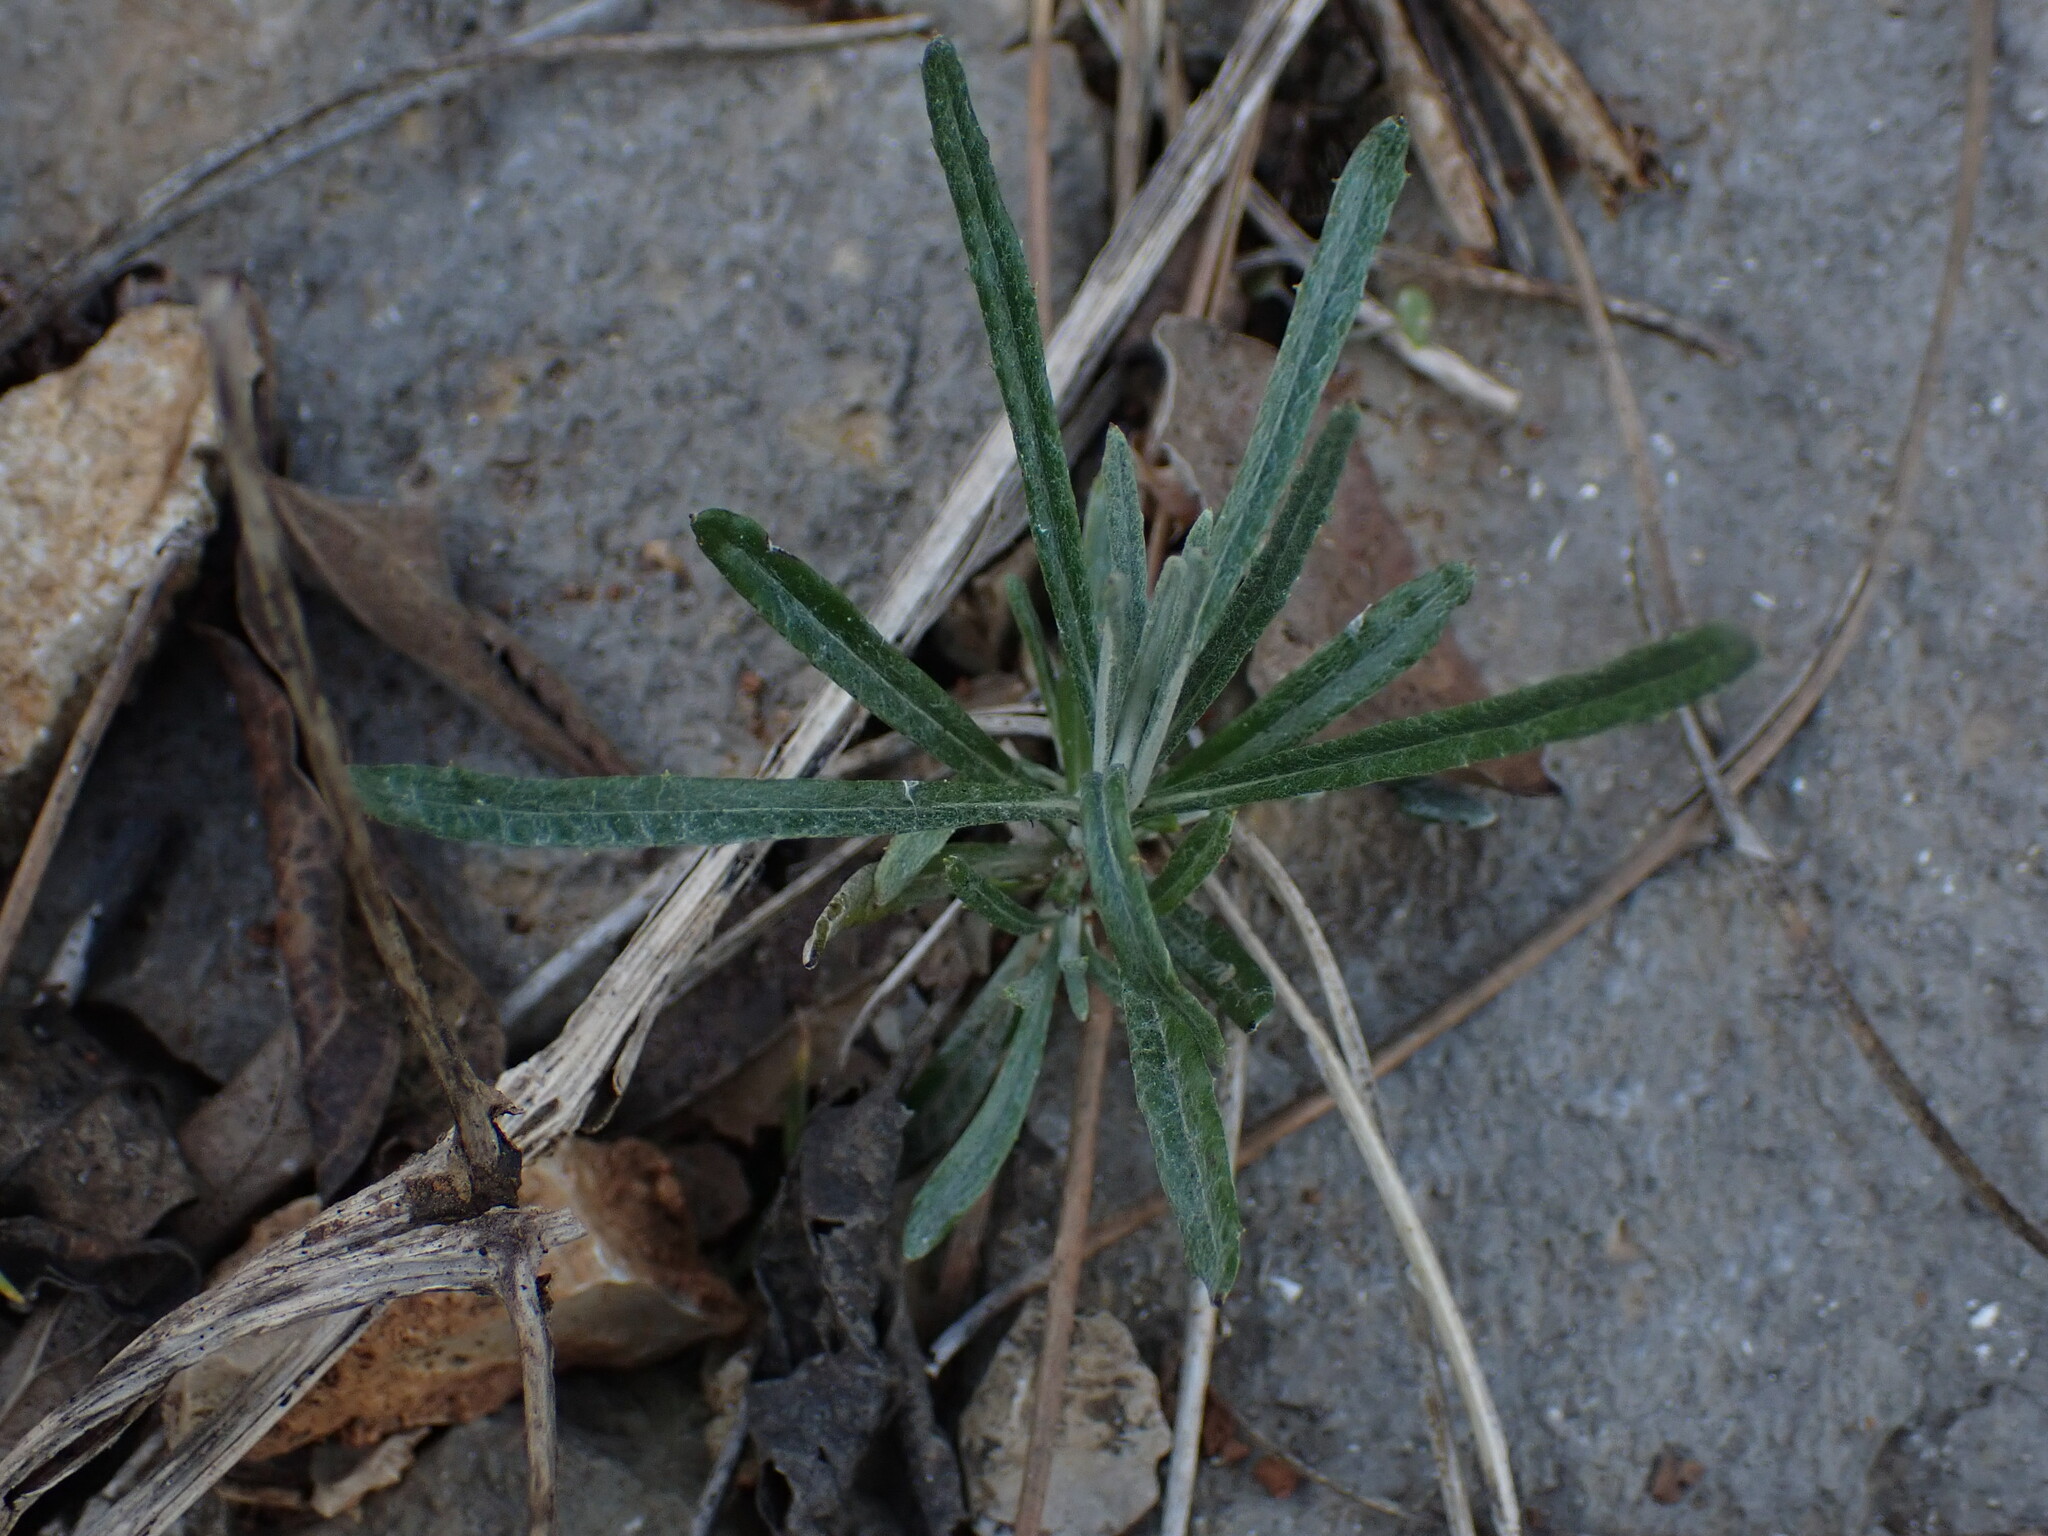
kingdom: Plantae
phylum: Tracheophyta
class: Magnoliopsida
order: Asterales
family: Asteraceae
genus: Staehelina
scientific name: Staehelina dubia
